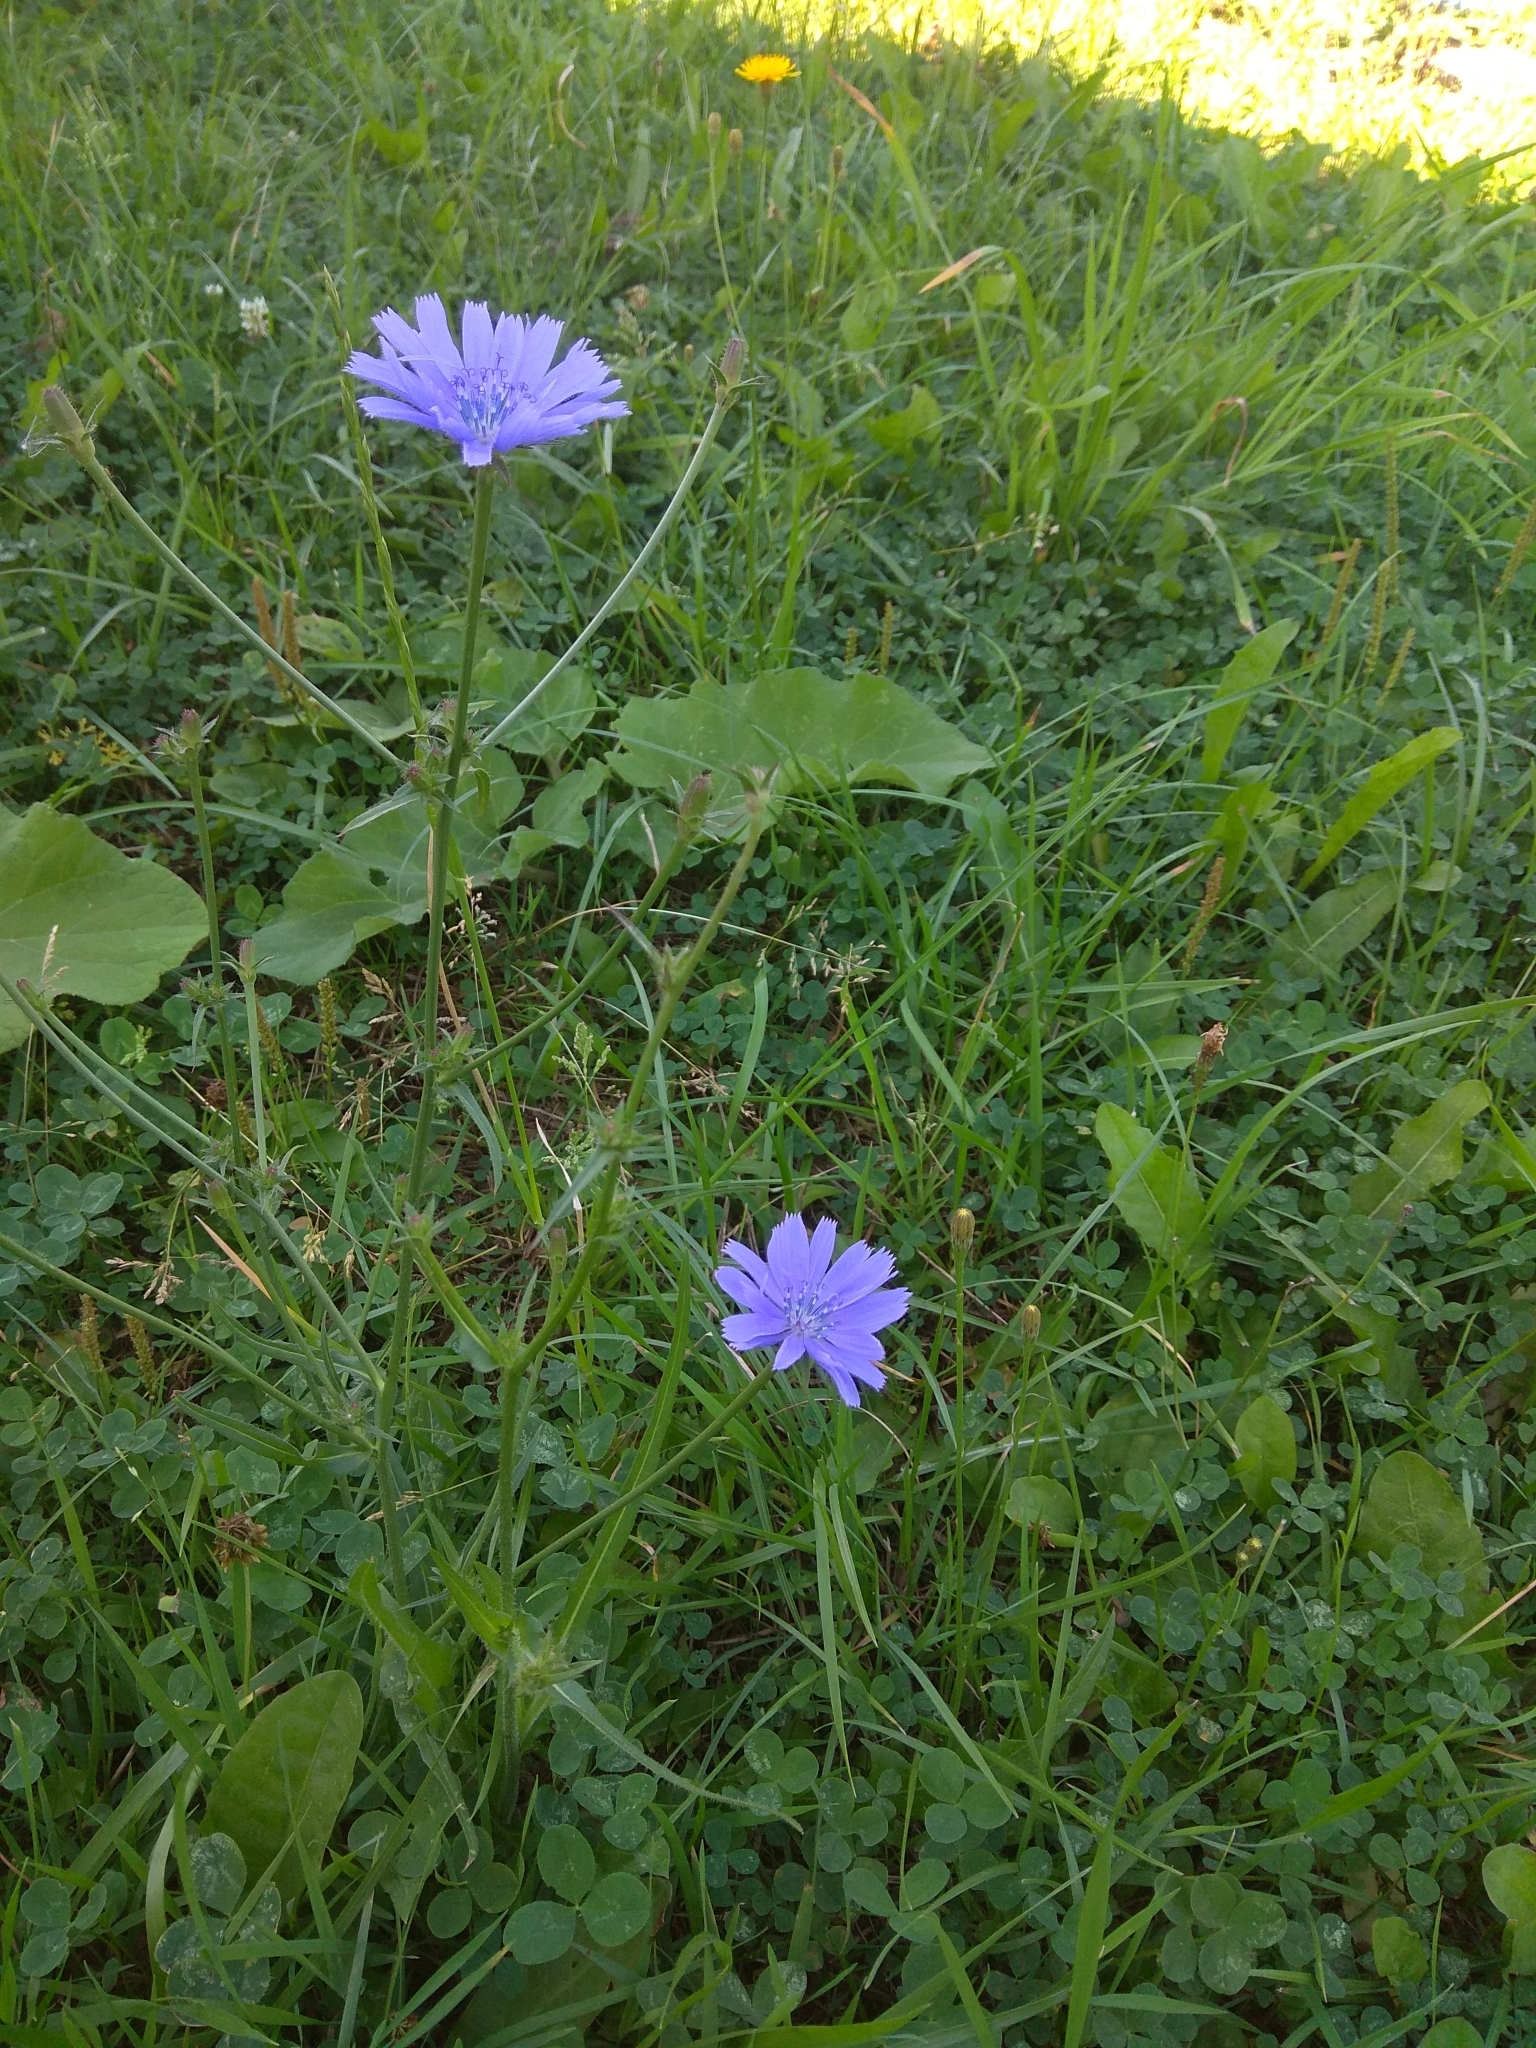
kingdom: Plantae
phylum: Tracheophyta
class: Magnoliopsida
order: Asterales
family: Asteraceae
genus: Cichorium
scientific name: Cichorium intybus
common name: Chicory
